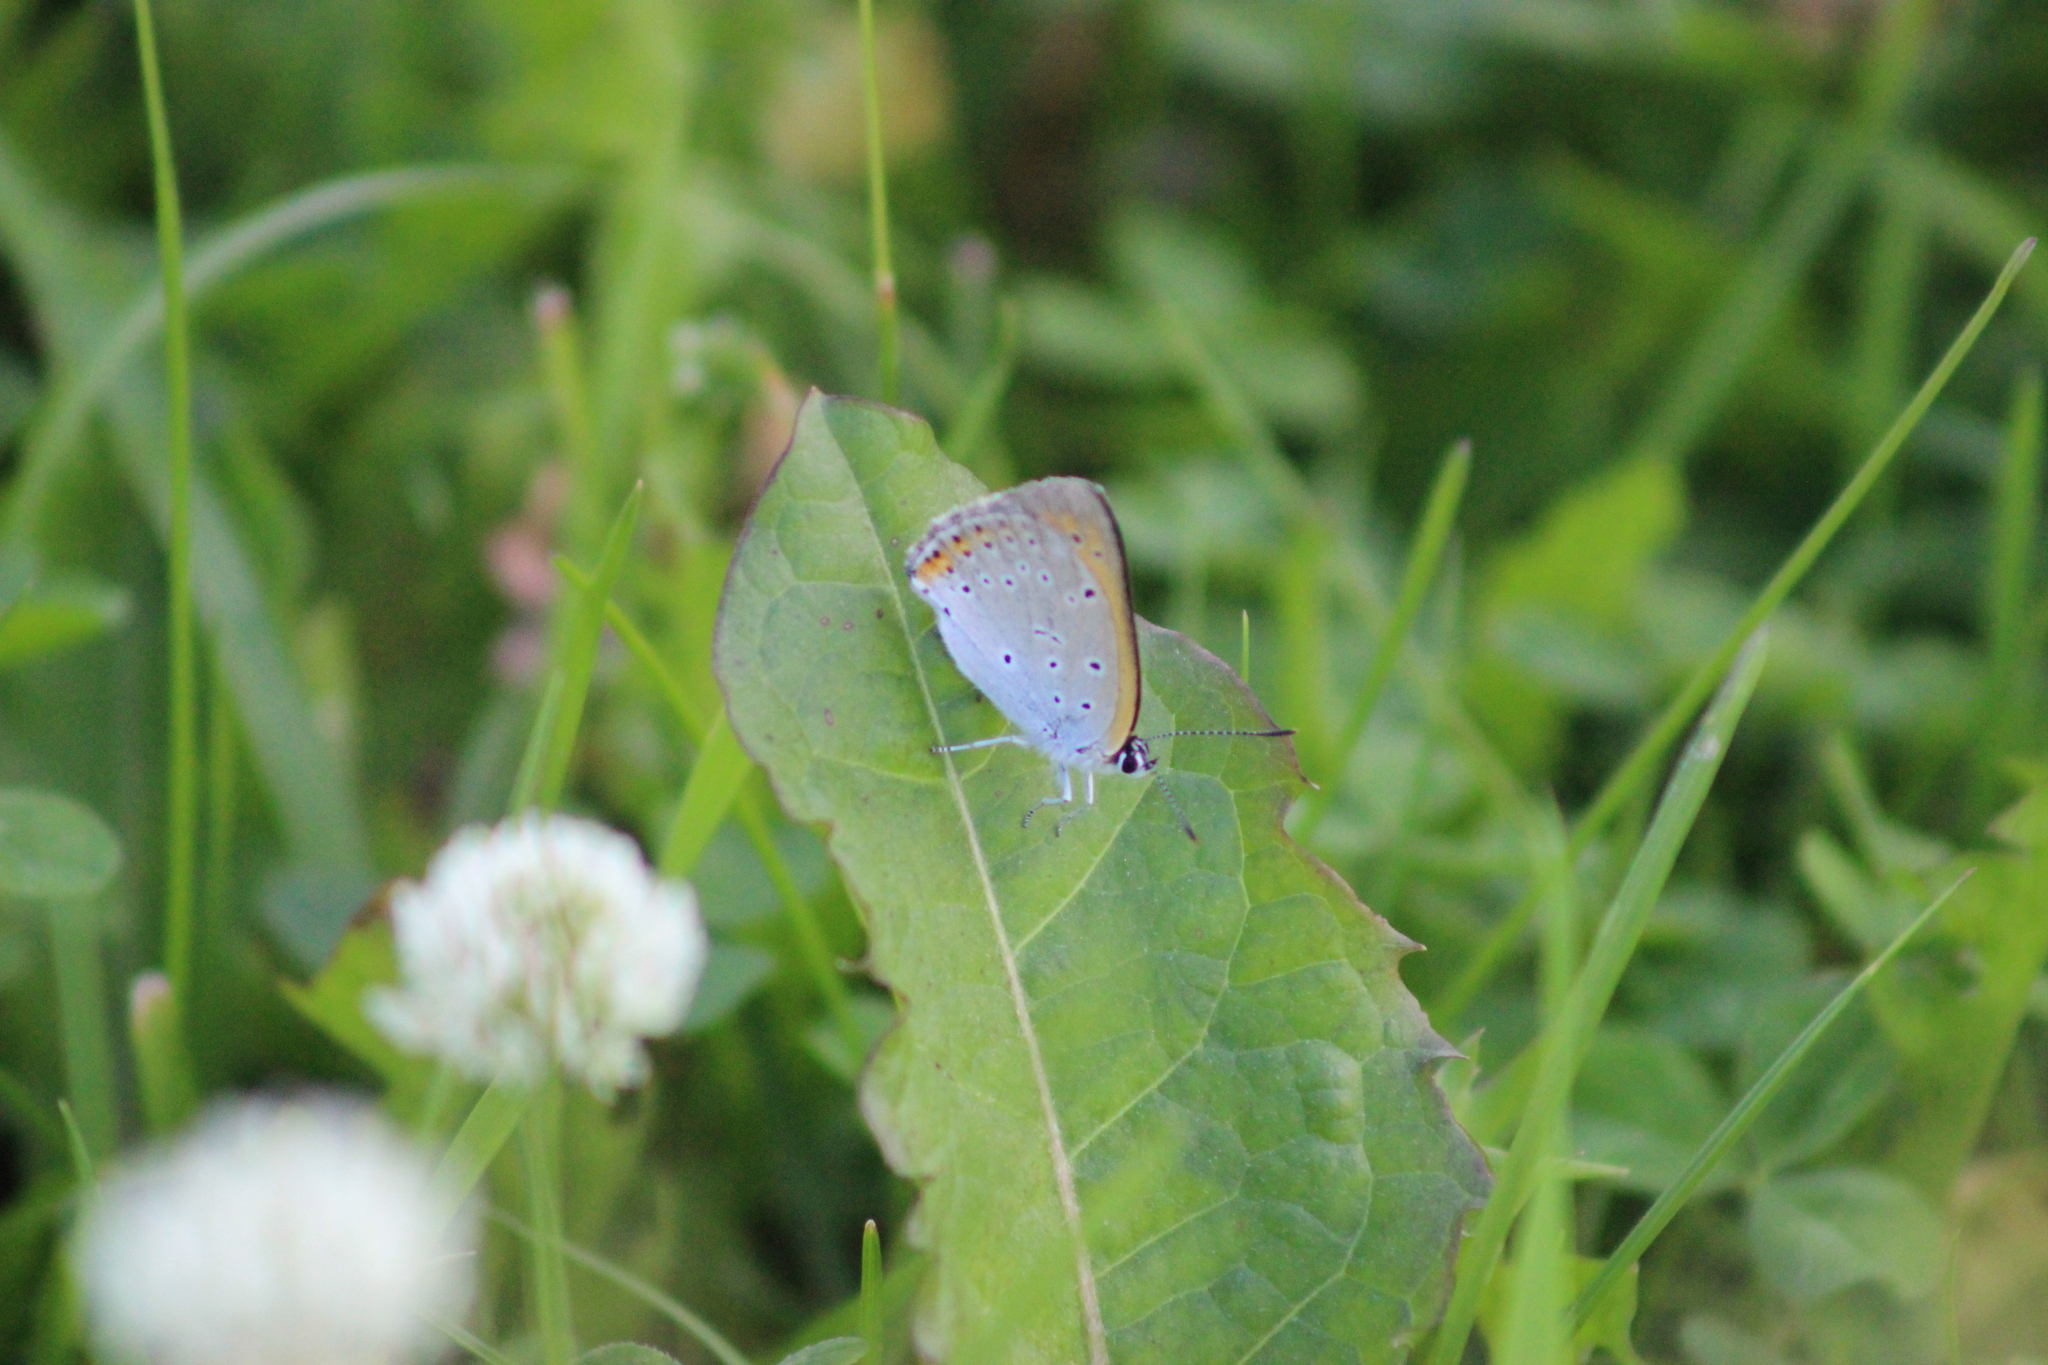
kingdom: Animalia
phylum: Arthropoda
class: Insecta
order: Lepidoptera
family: Lycaenidae
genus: Lycaena
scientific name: Lycaena dispar
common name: Large copper
